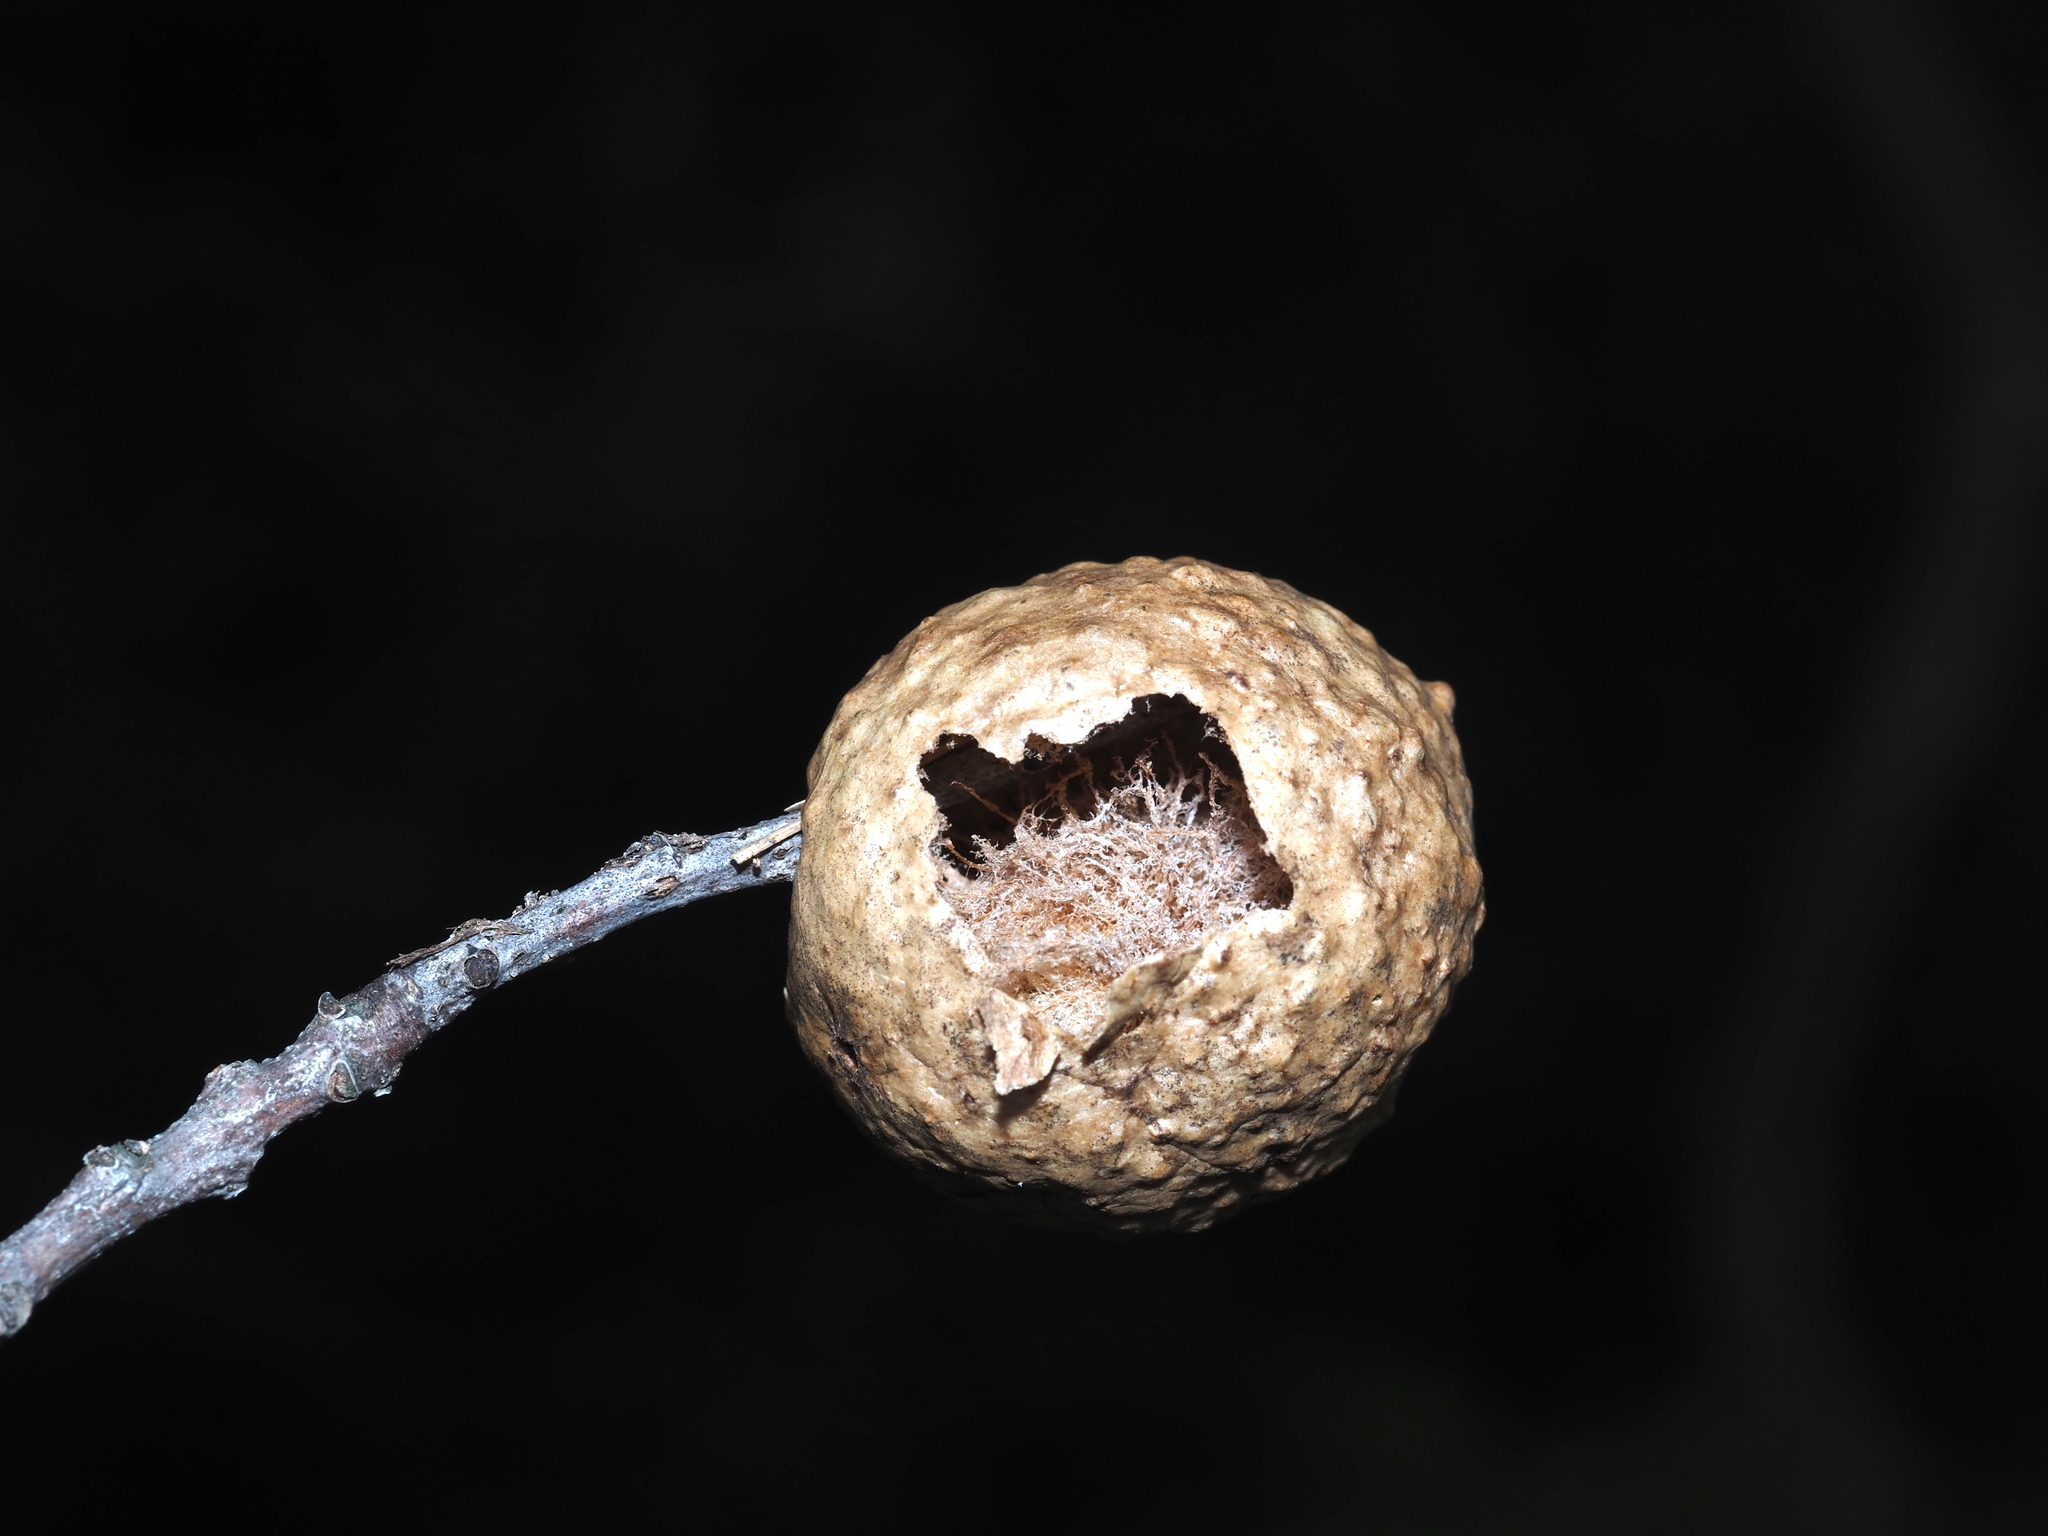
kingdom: Animalia
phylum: Arthropoda
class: Insecta
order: Hymenoptera
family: Cynipidae
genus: Amphibolips
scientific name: Amphibolips
